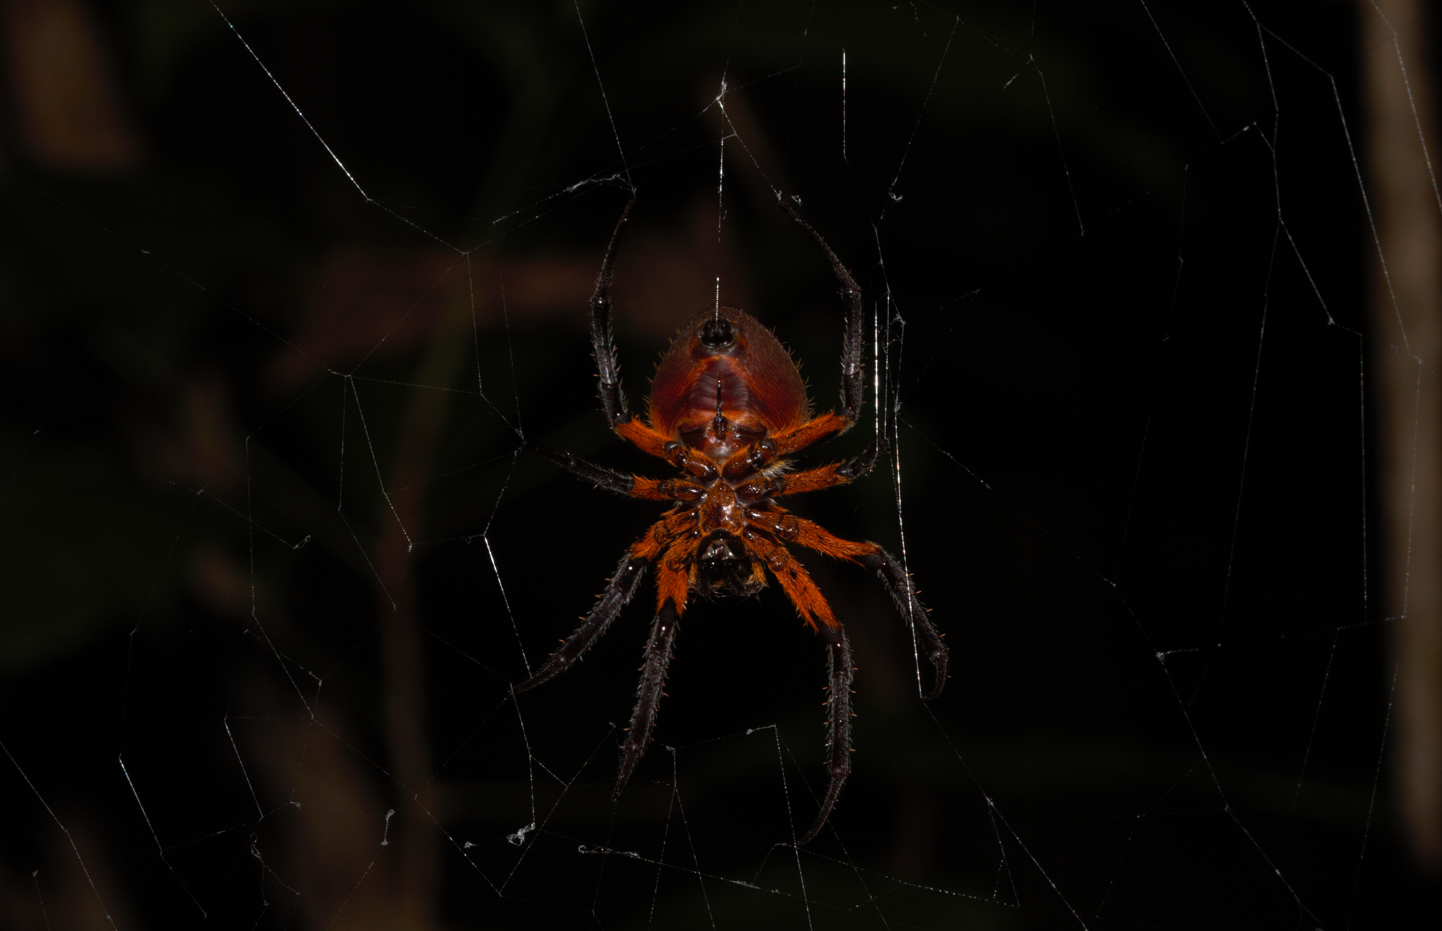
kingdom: Animalia
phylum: Arthropoda
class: Arachnida
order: Araneae
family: Araneidae
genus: Eriophora
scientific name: Eriophora fuliginea
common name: Orb weavers
